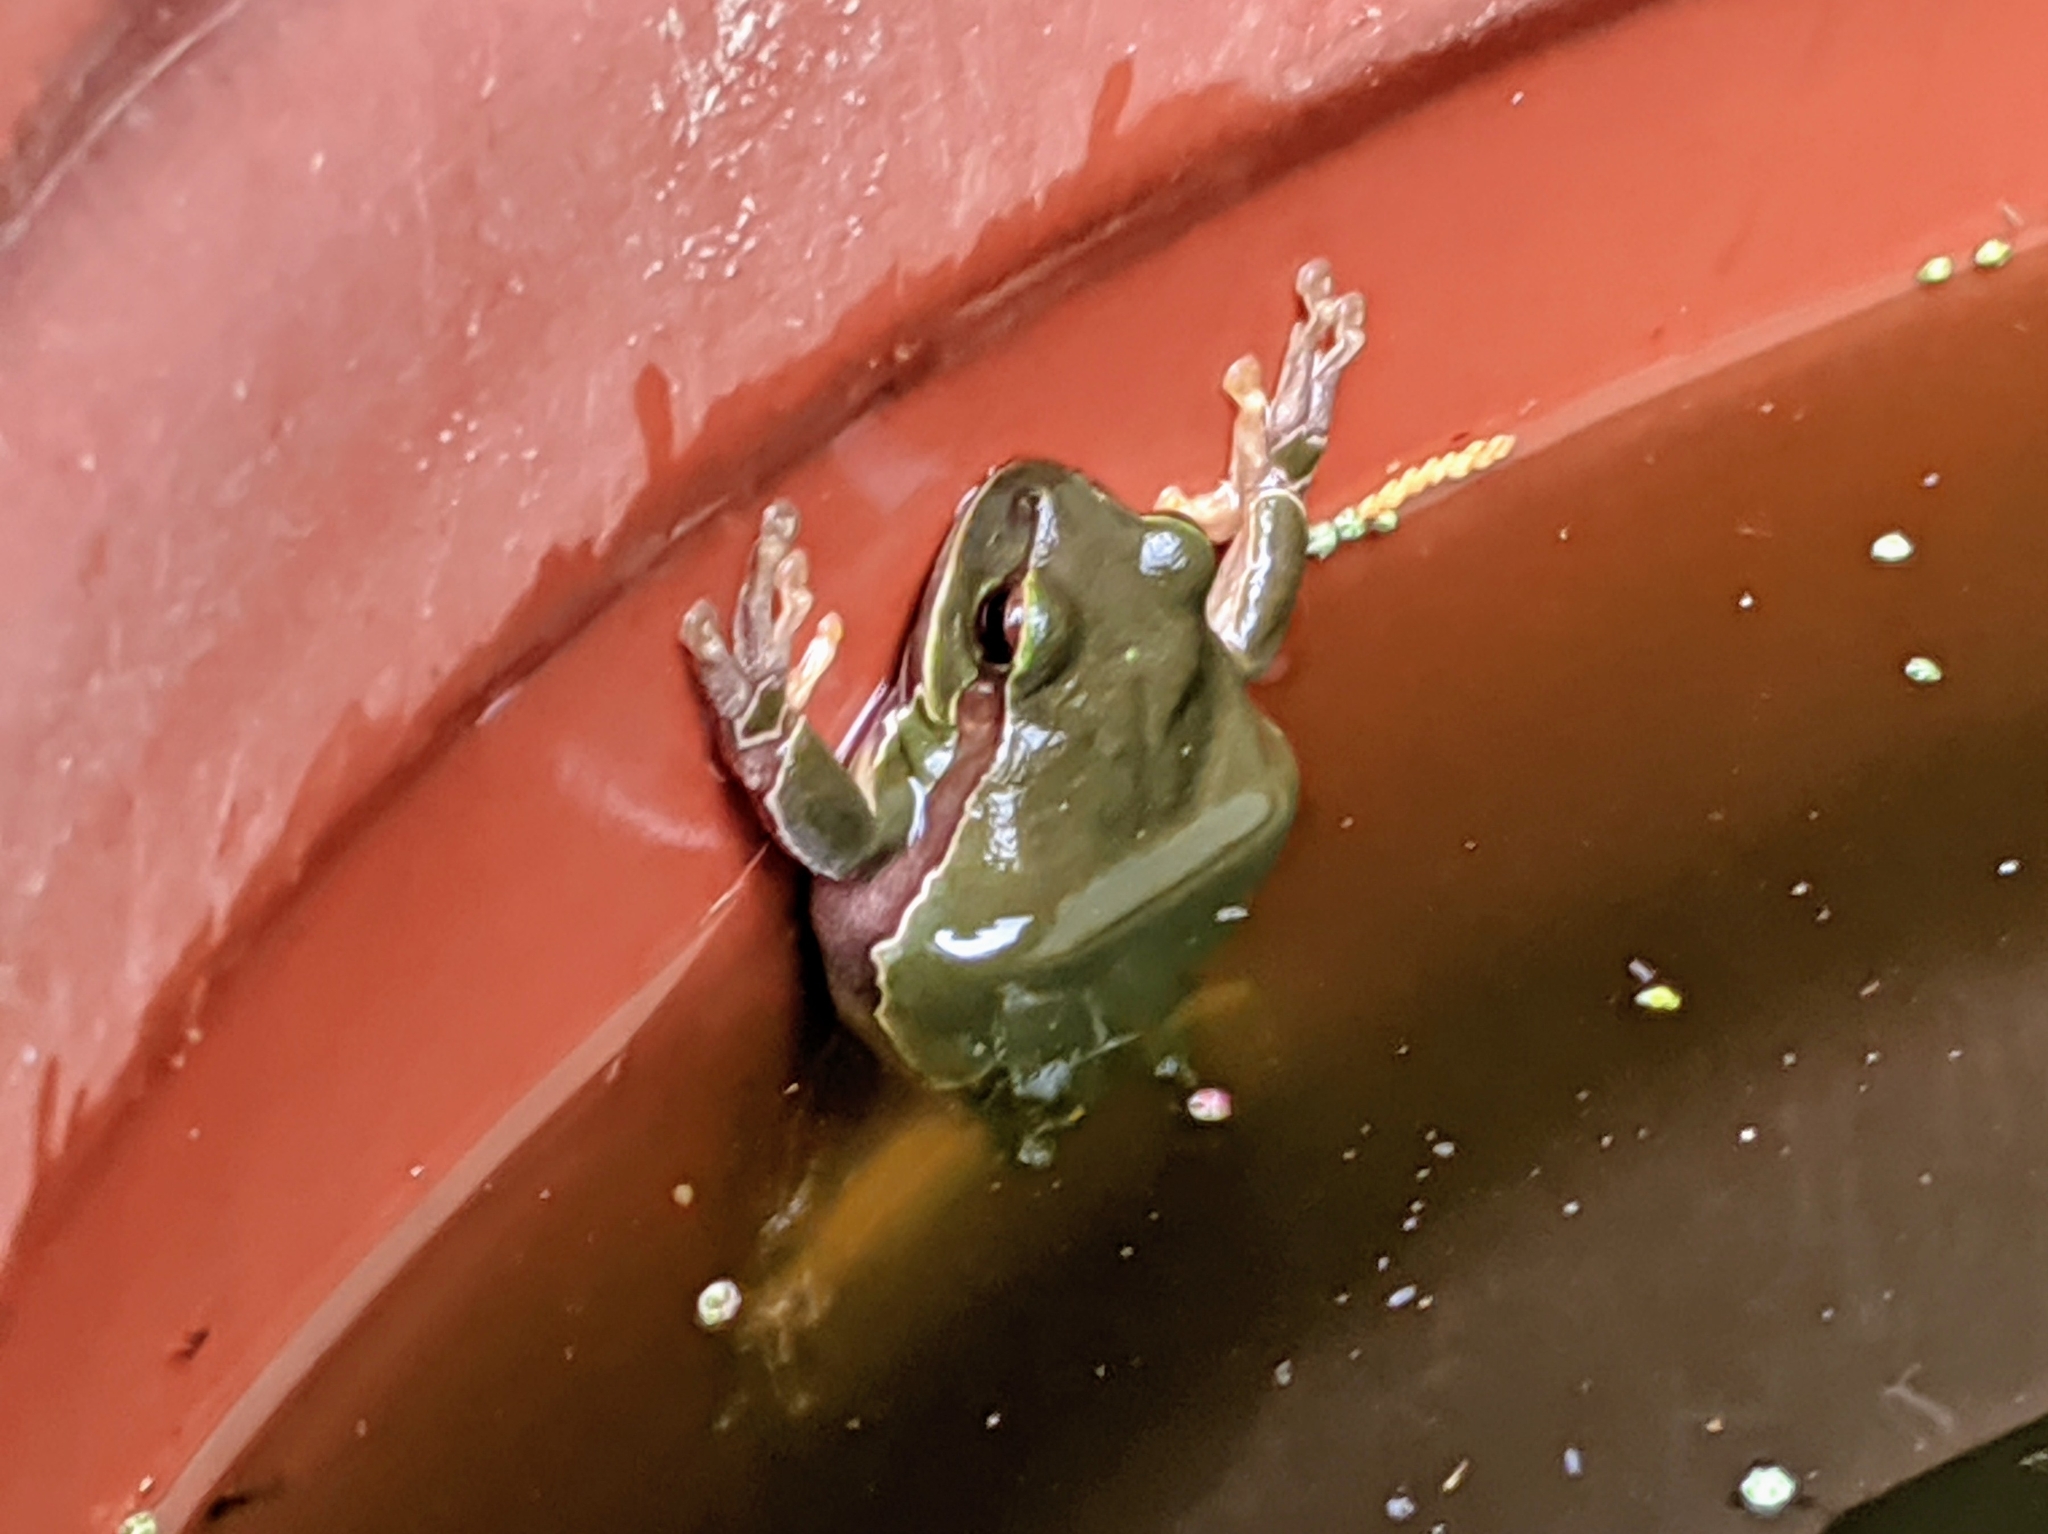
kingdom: Animalia
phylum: Chordata
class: Amphibia
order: Anura
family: Hylidae
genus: Hyla
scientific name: Hyla arborea
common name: Common tree frog
